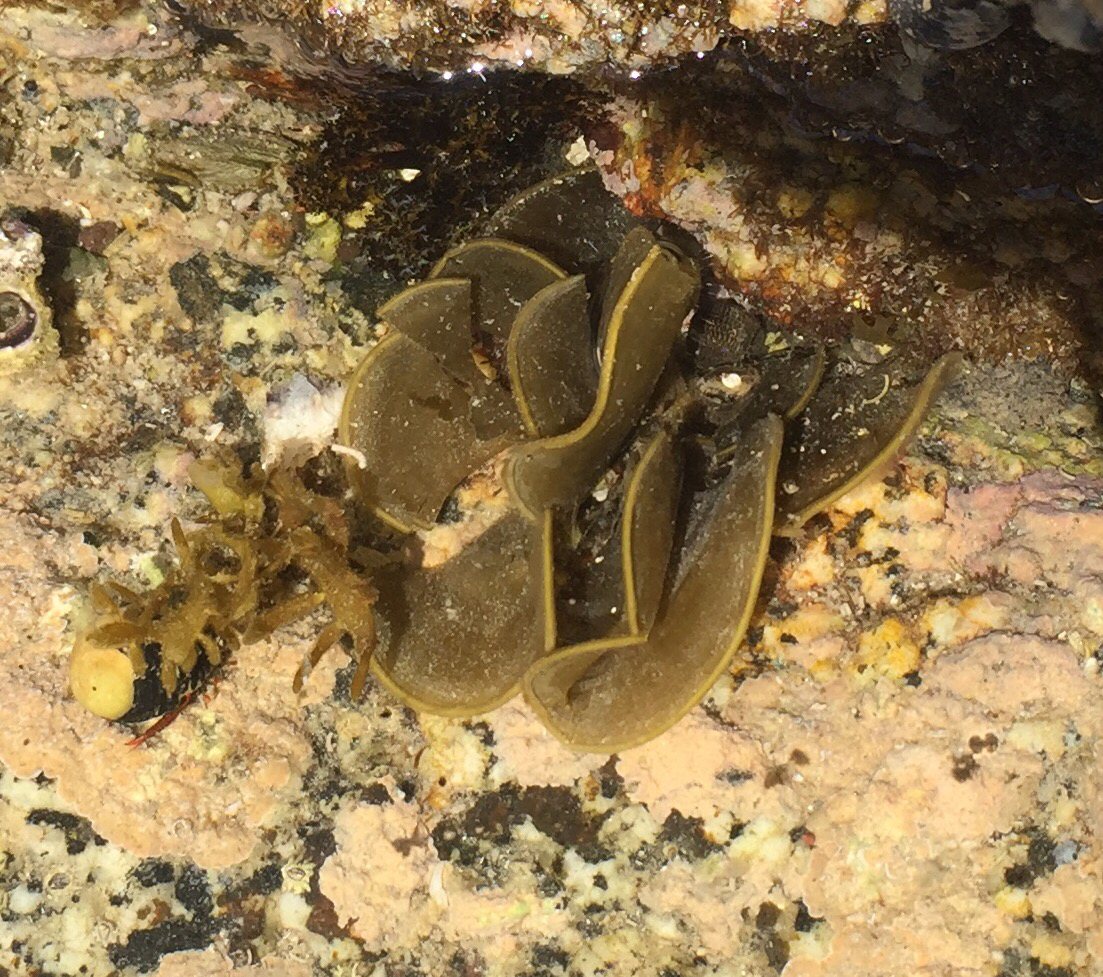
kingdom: Chromista
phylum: Ochrophyta
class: Phaeophyceae
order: Dictyotales
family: Dictyotaceae
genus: Lobophora
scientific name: Lobophora variegata
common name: Encrusting fan-leaf algae
